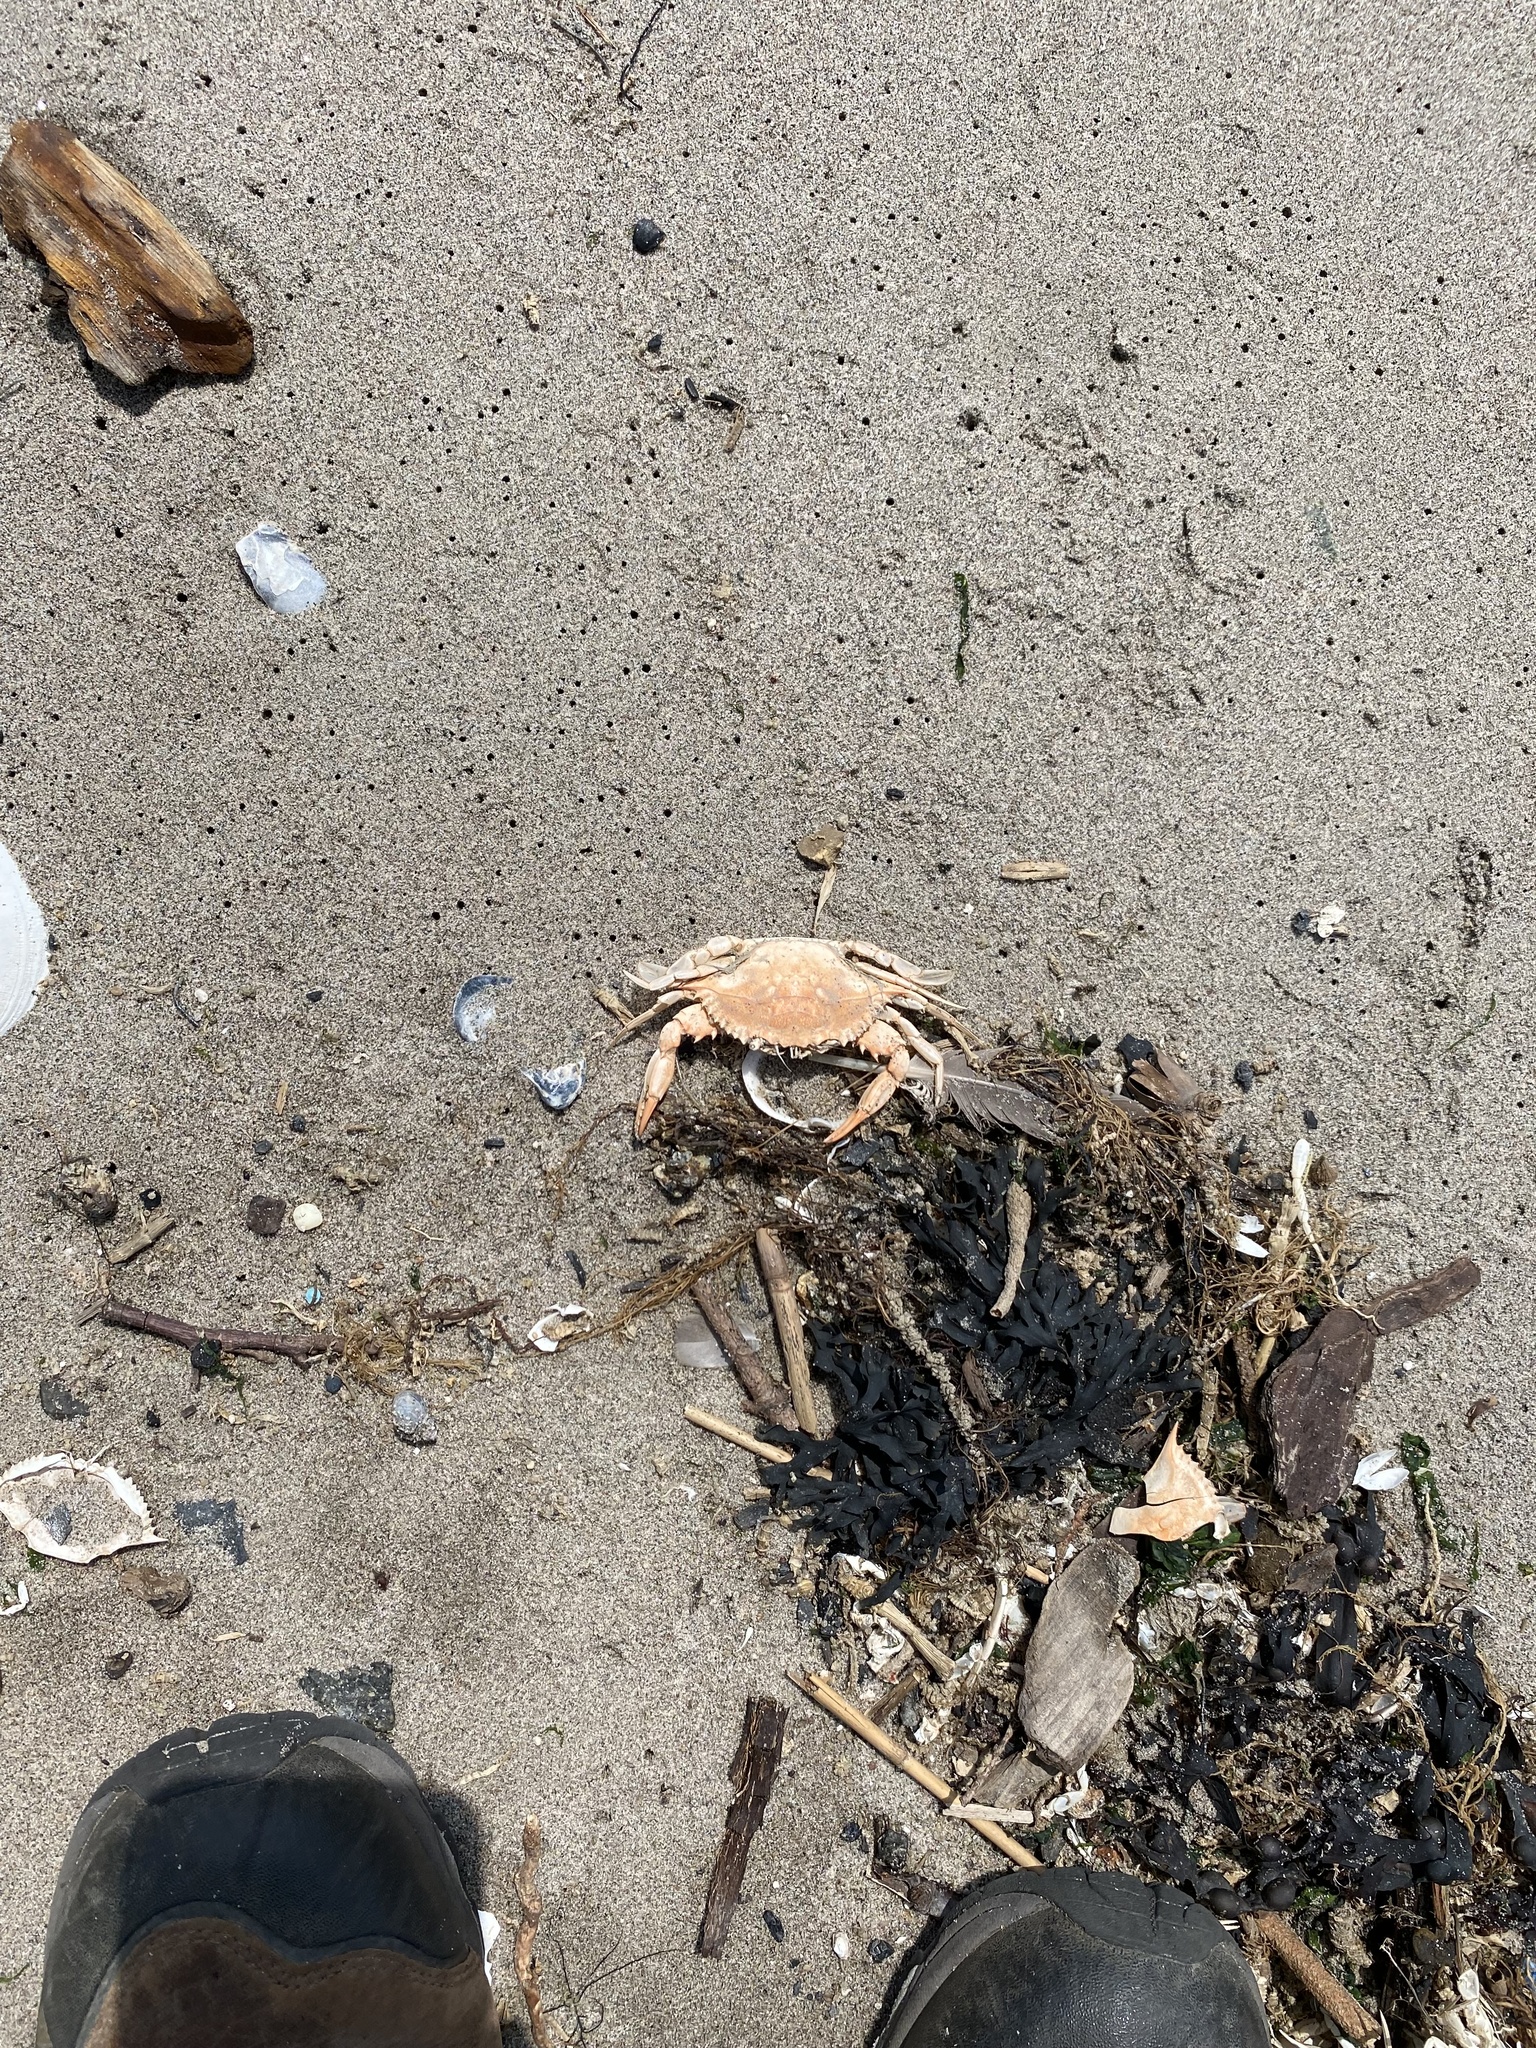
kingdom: Animalia
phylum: Arthropoda
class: Malacostraca
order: Decapoda
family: Portunidae
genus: Callinectes
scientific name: Callinectes sapidus
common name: Blue crab
